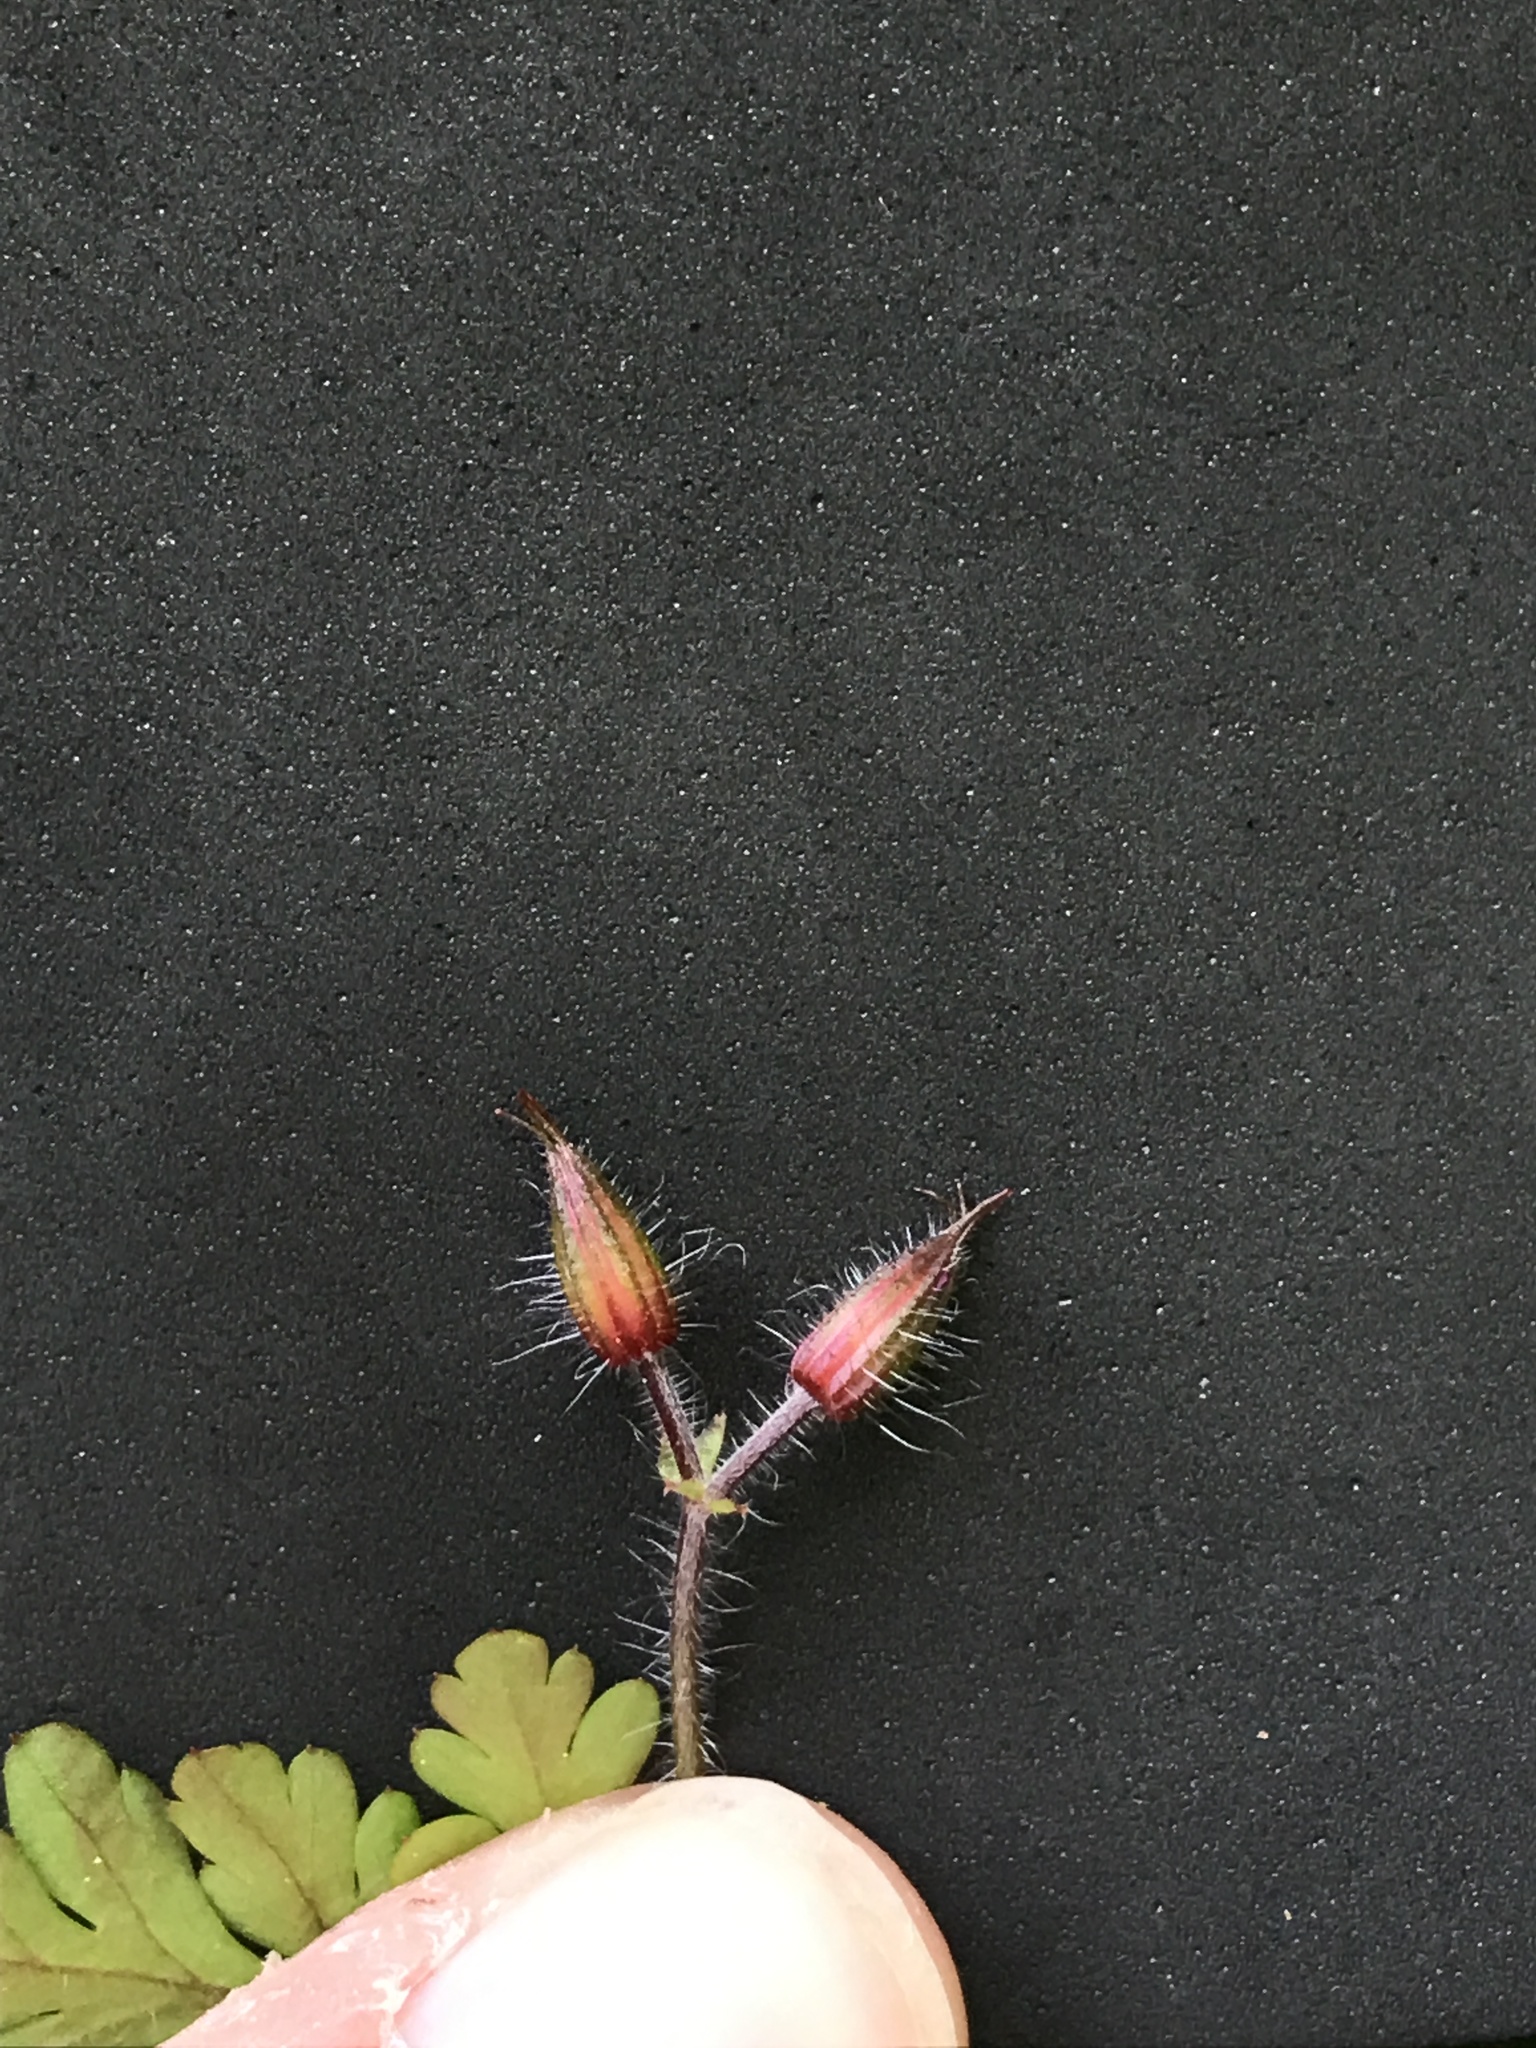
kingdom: Plantae
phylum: Tracheophyta
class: Magnoliopsida
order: Geraniales
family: Geraniaceae
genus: Geranium
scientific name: Geranium robertianum
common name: Herb-robert
